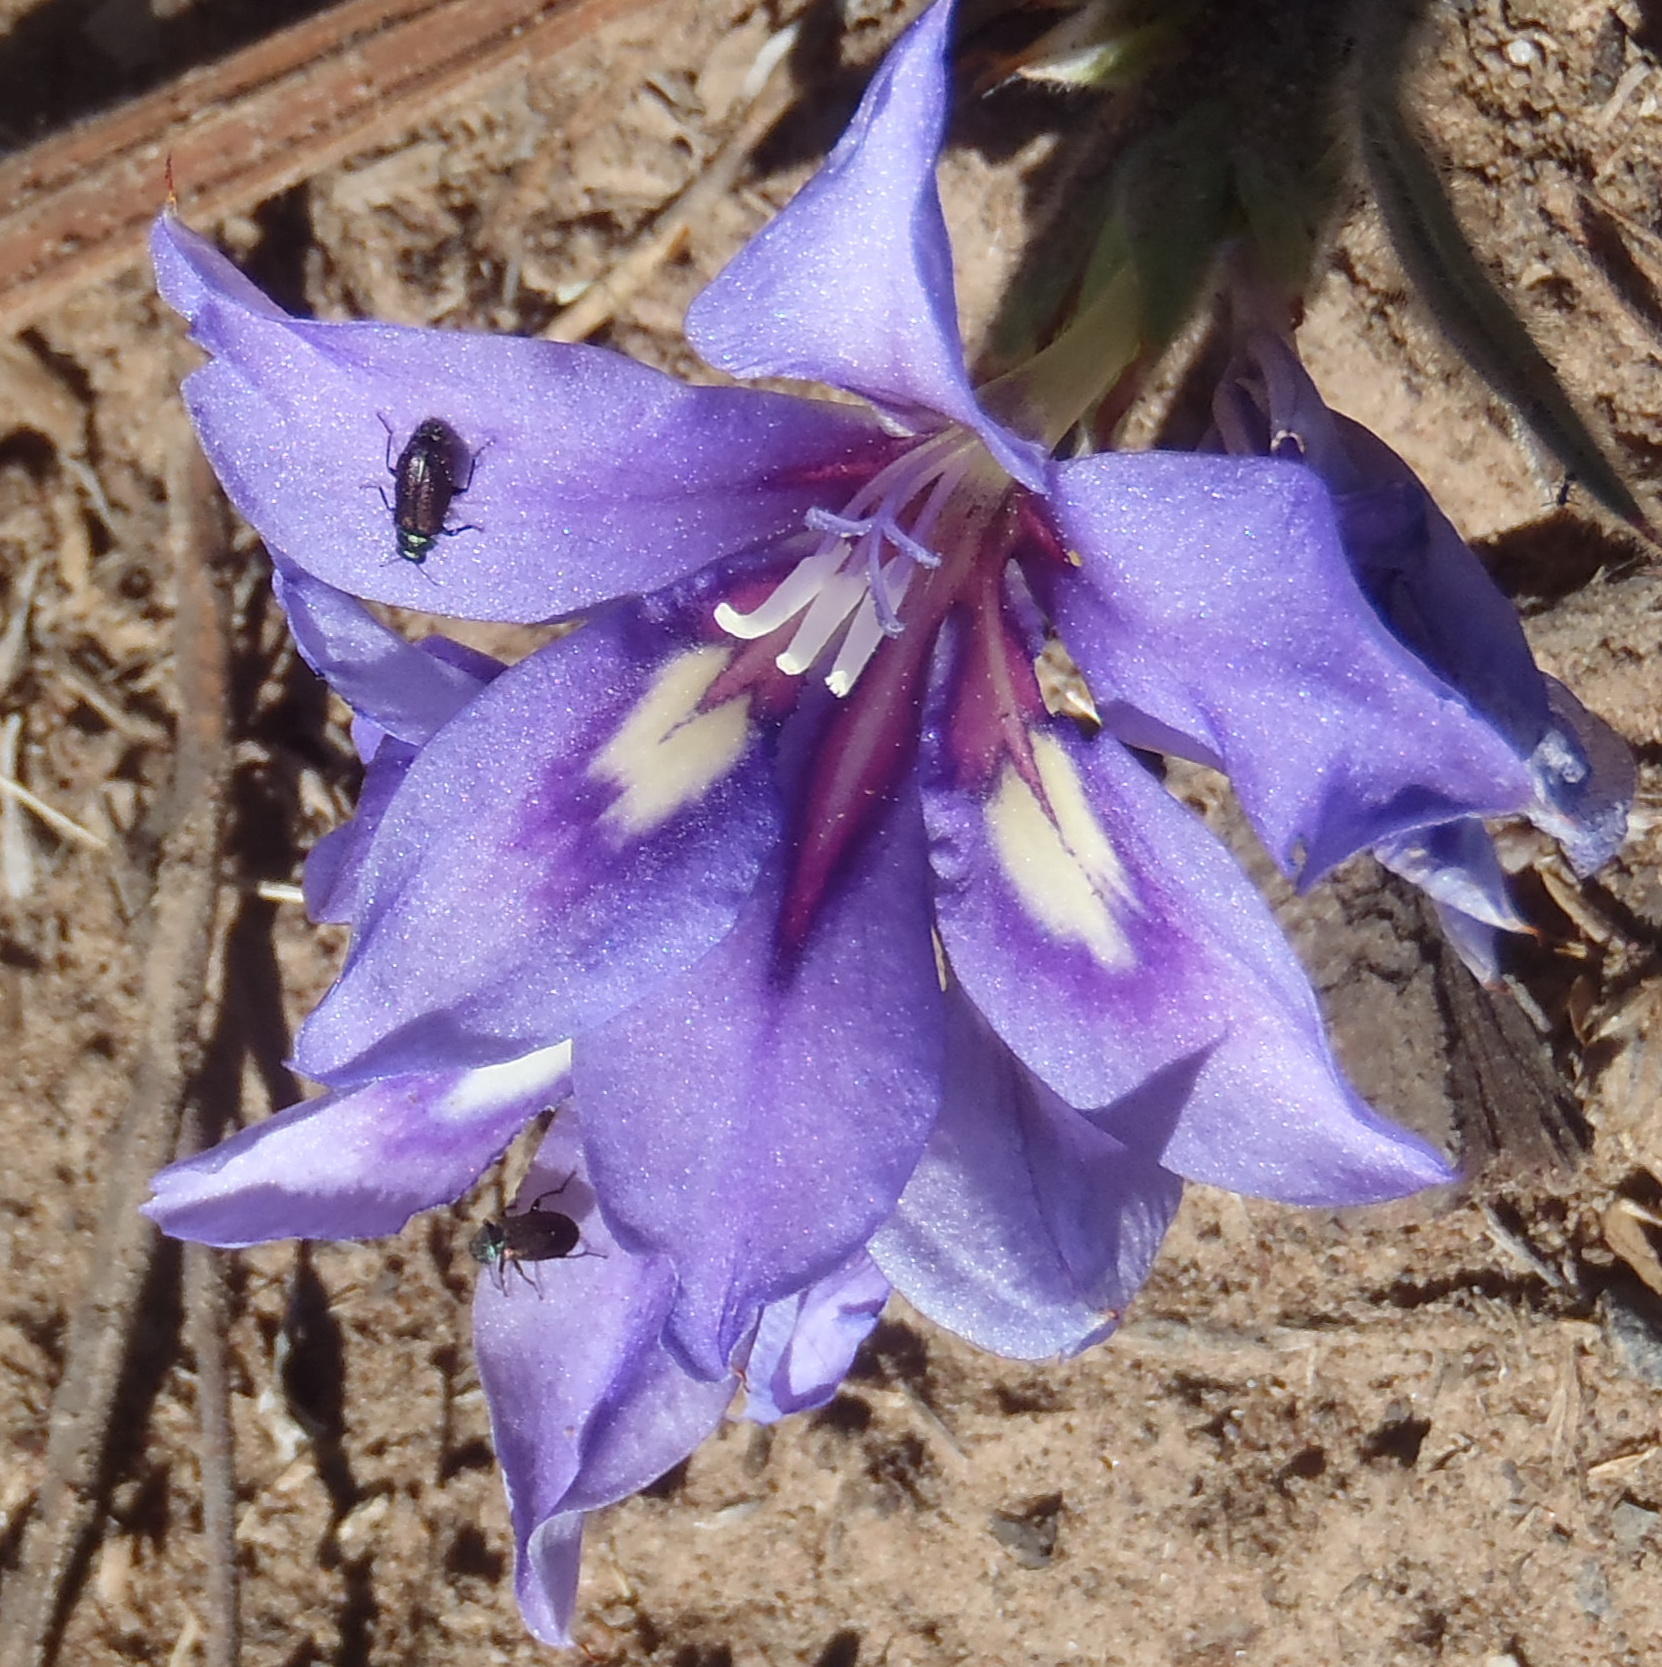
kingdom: Plantae
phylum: Tracheophyta
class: Liliopsida
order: Asparagales
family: Iridaceae
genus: Babiana
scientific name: Babiana sambucina
